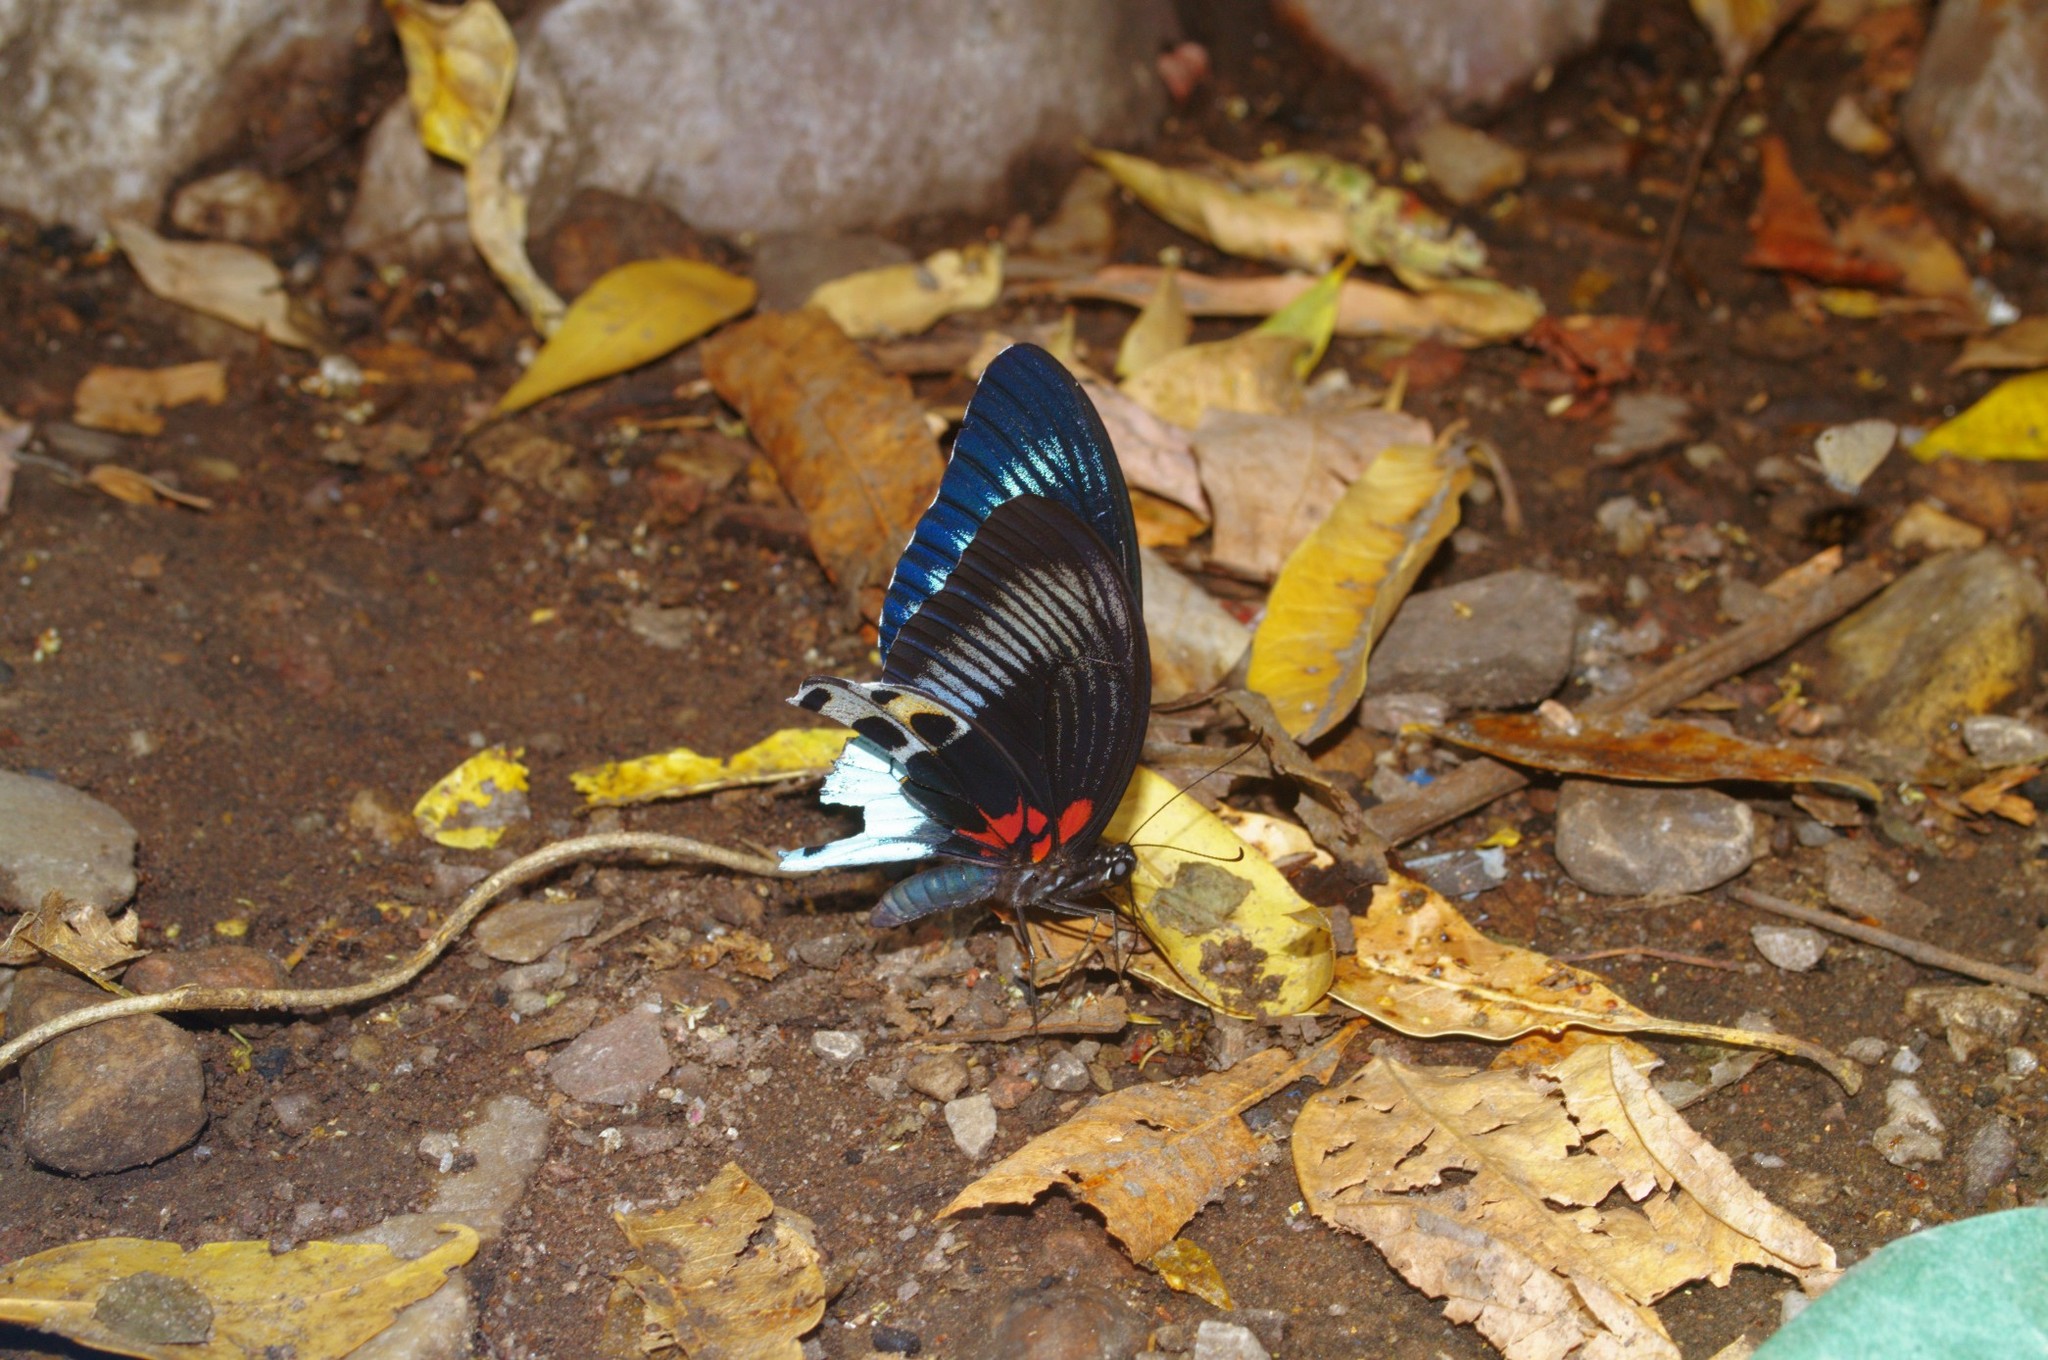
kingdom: Animalia
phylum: Arthropoda
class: Insecta
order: Lepidoptera
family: Papilionidae
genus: Papilio
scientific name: Papilio memnon
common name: Great mormon
